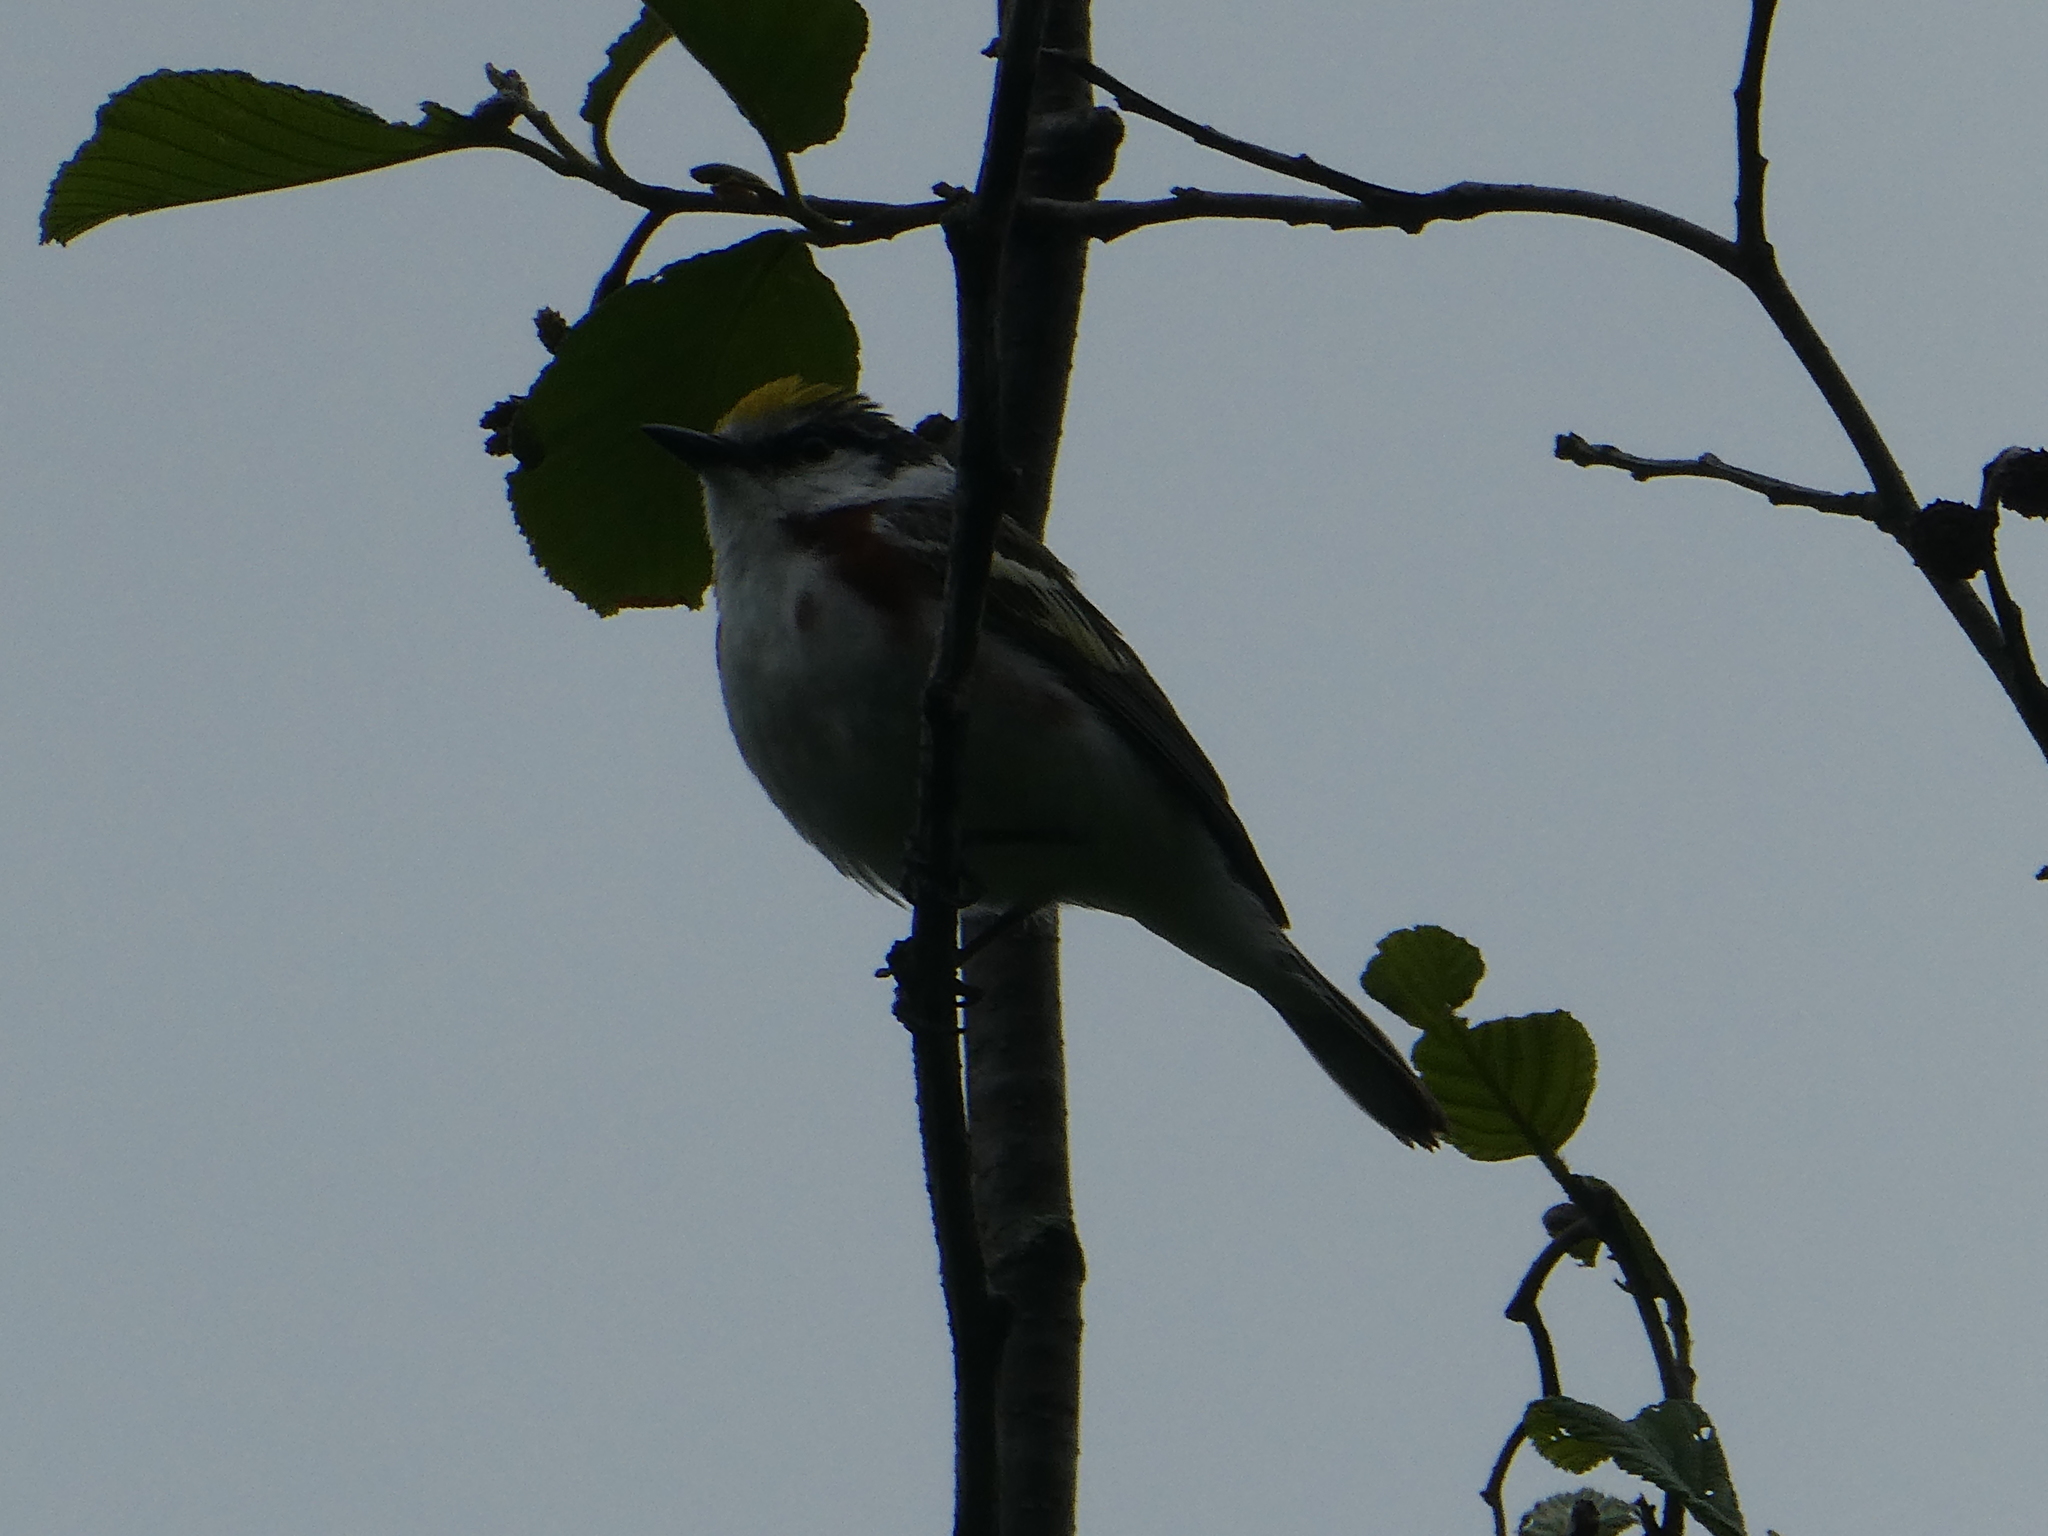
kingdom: Animalia
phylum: Chordata
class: Aves
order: Passeriformes
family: Parulidae
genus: Setophaga
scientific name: Setophaga pensylvanica
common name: Chestnut-sided warbler
